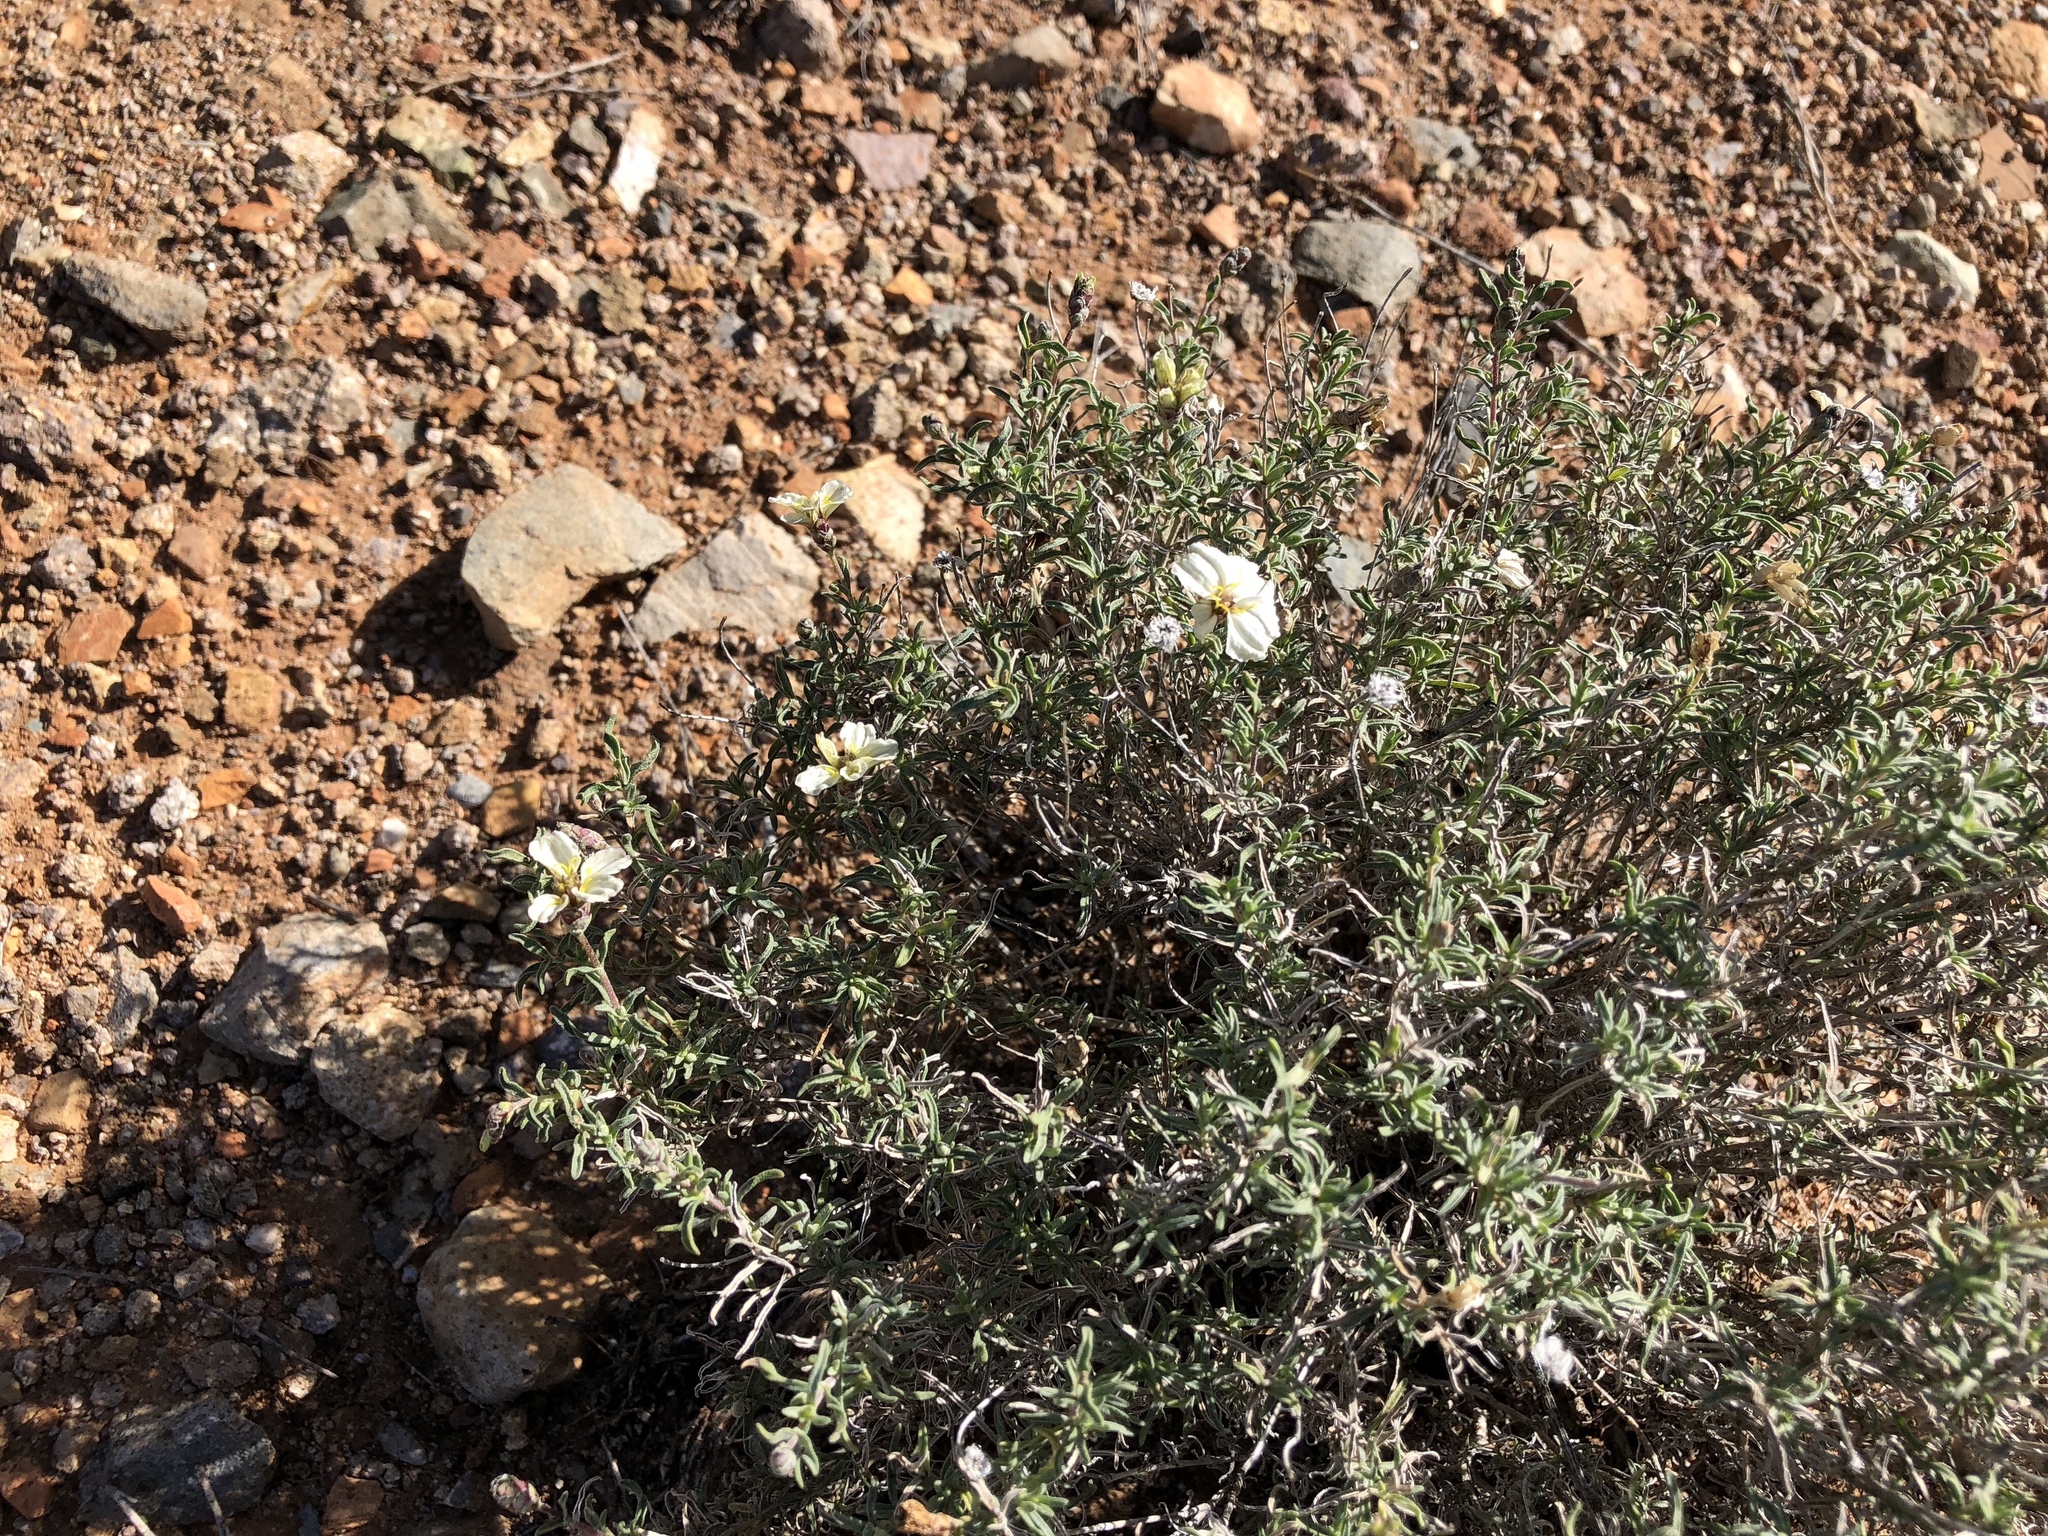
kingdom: Plantae
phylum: Tracheophyta
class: Magnoliopsida
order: Asterales
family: Asteraceae
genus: Zinnia
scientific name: Zinnia acerosa
